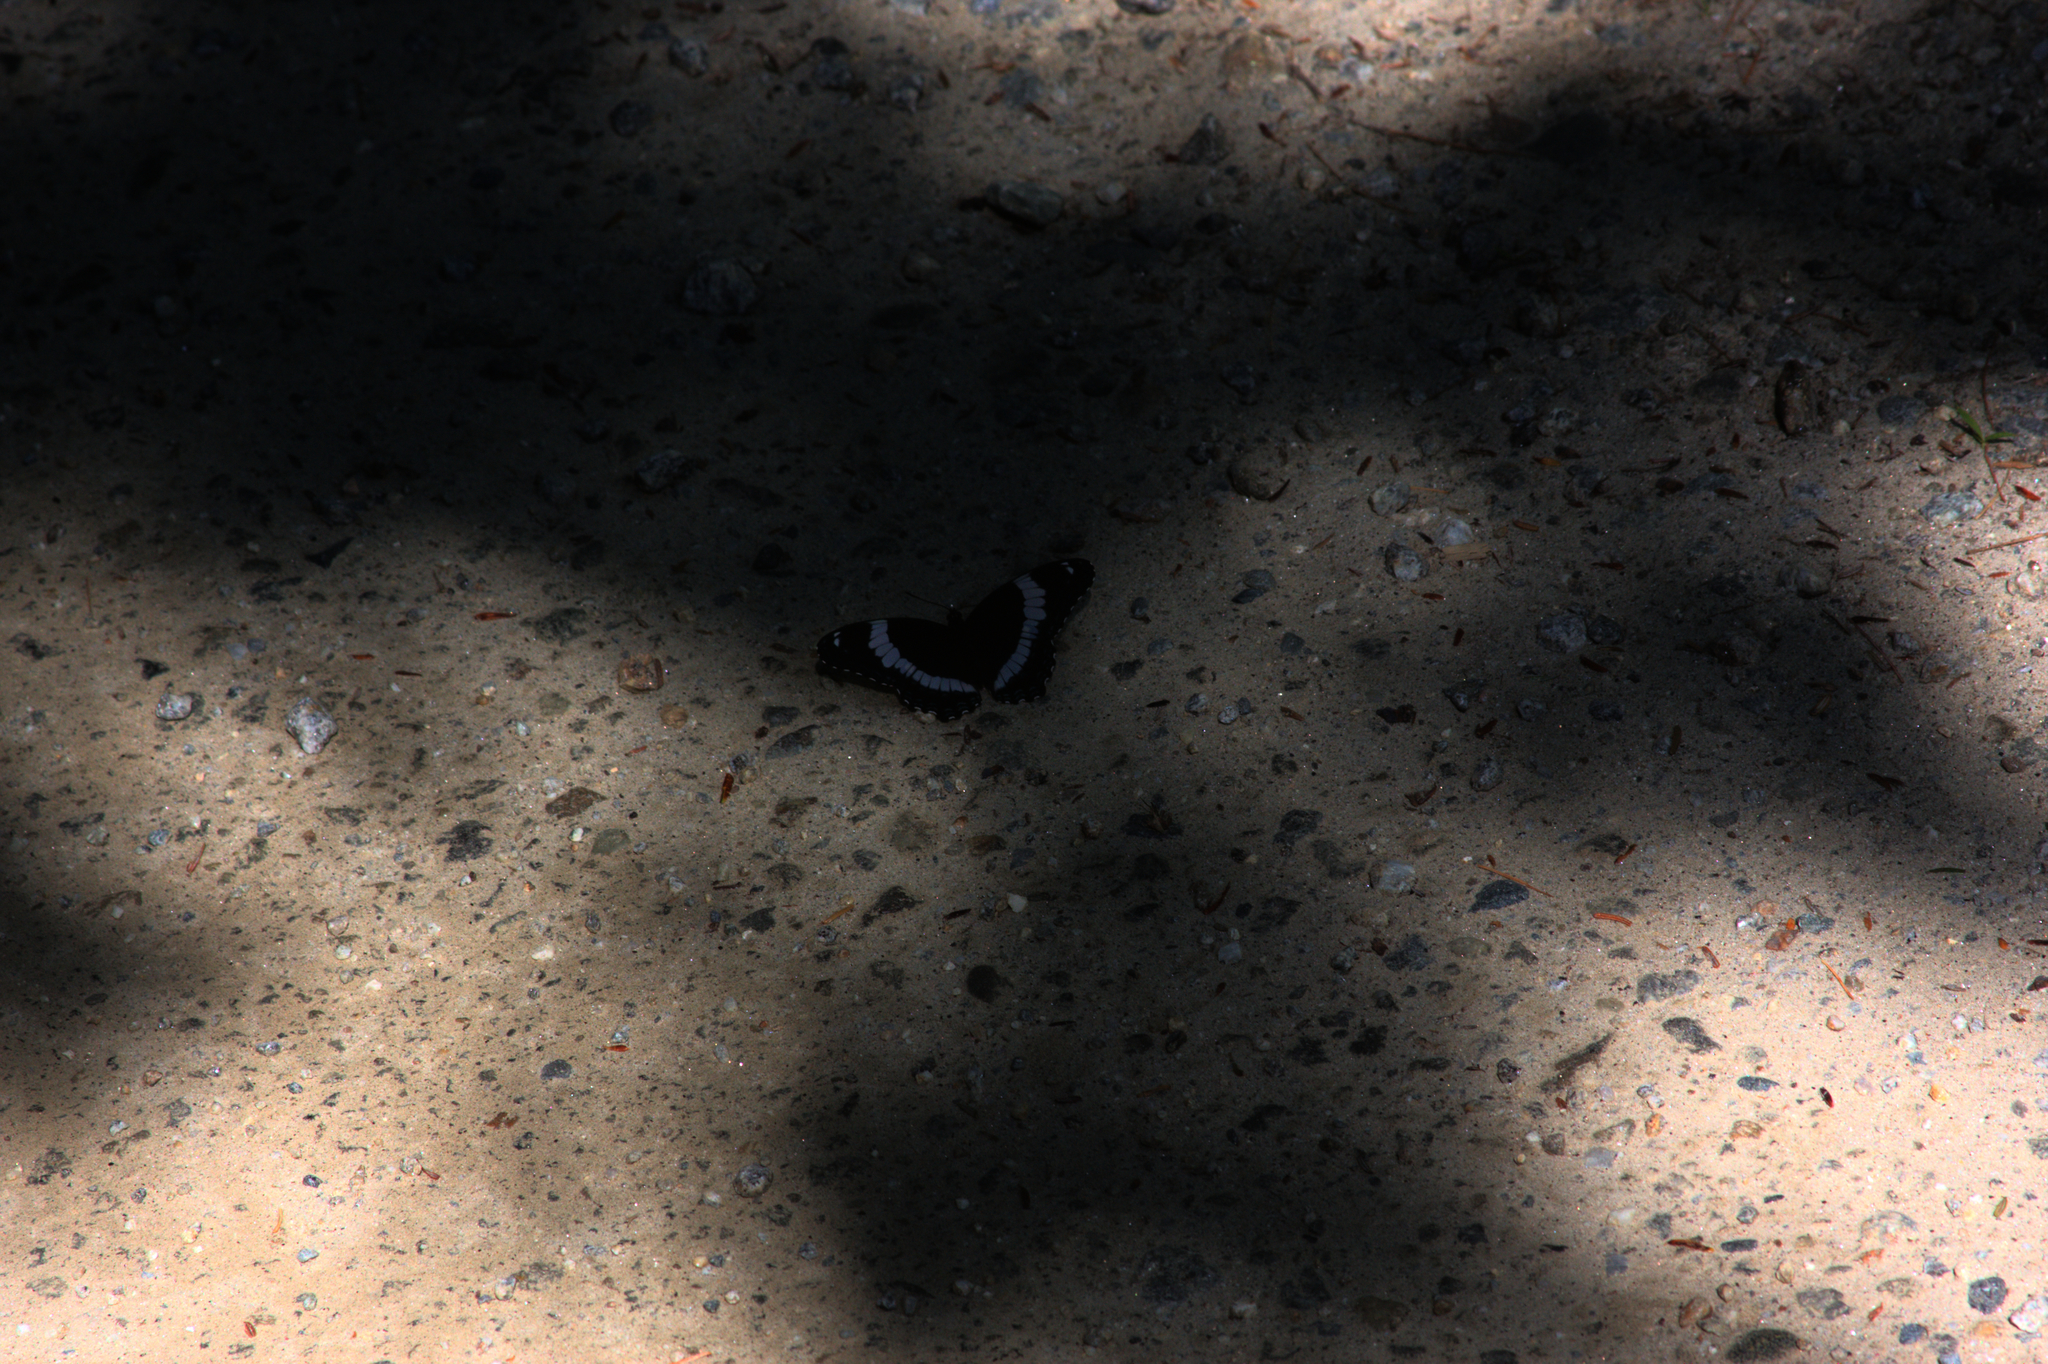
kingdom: Animalia
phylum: Arthropoda
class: Insecta
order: Lepidoptera
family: Nymphalidae
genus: Limenitis
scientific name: Limenitis arthemis
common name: Red-spotted admiral
